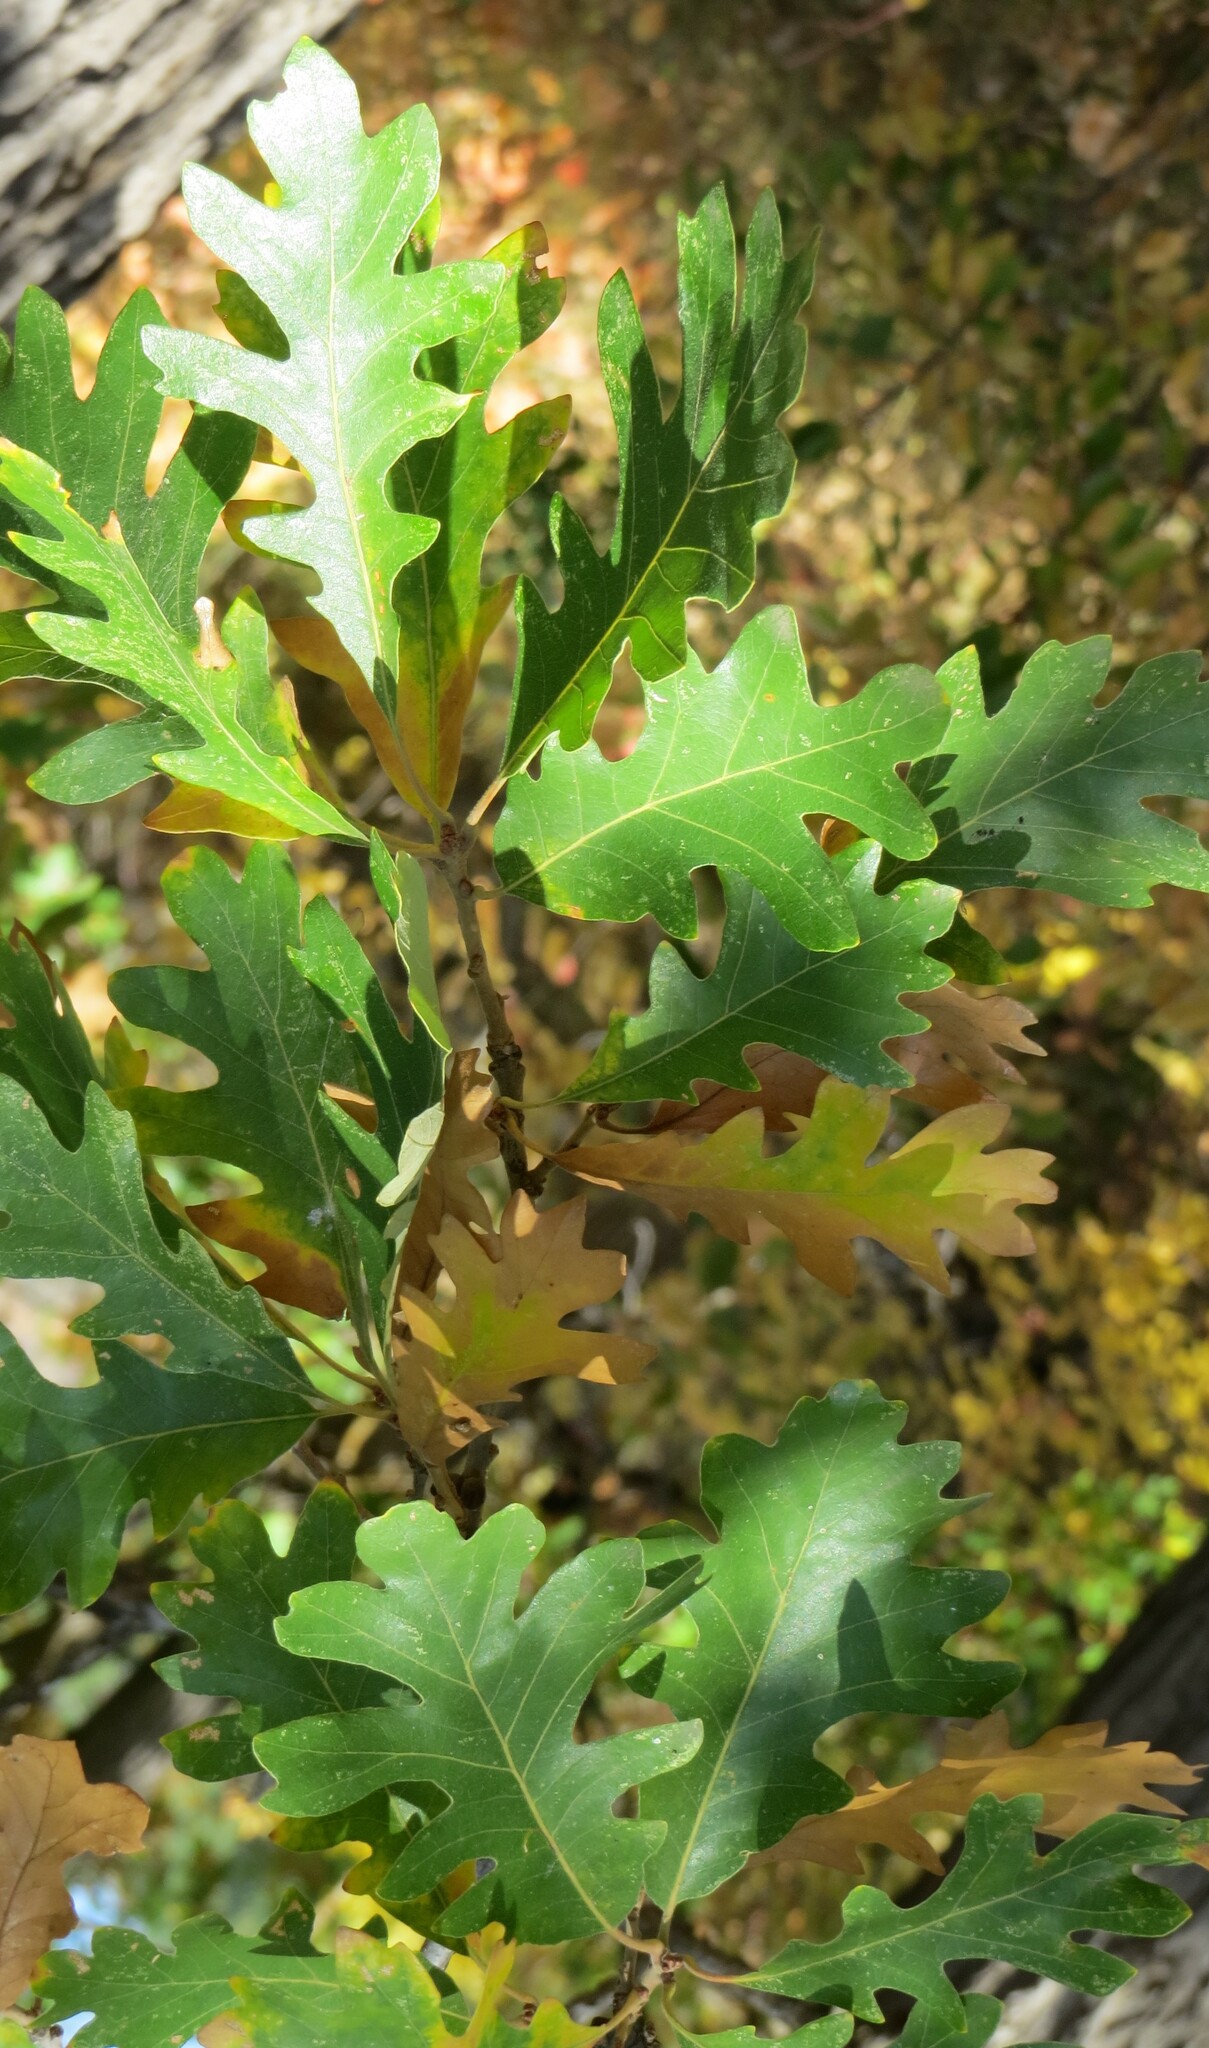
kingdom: Plantae
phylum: Tracheophyta
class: Magnoliopsida
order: Fagales
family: Fagaceae
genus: Quercus
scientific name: Quercus macrocarpa
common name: Bur oak
